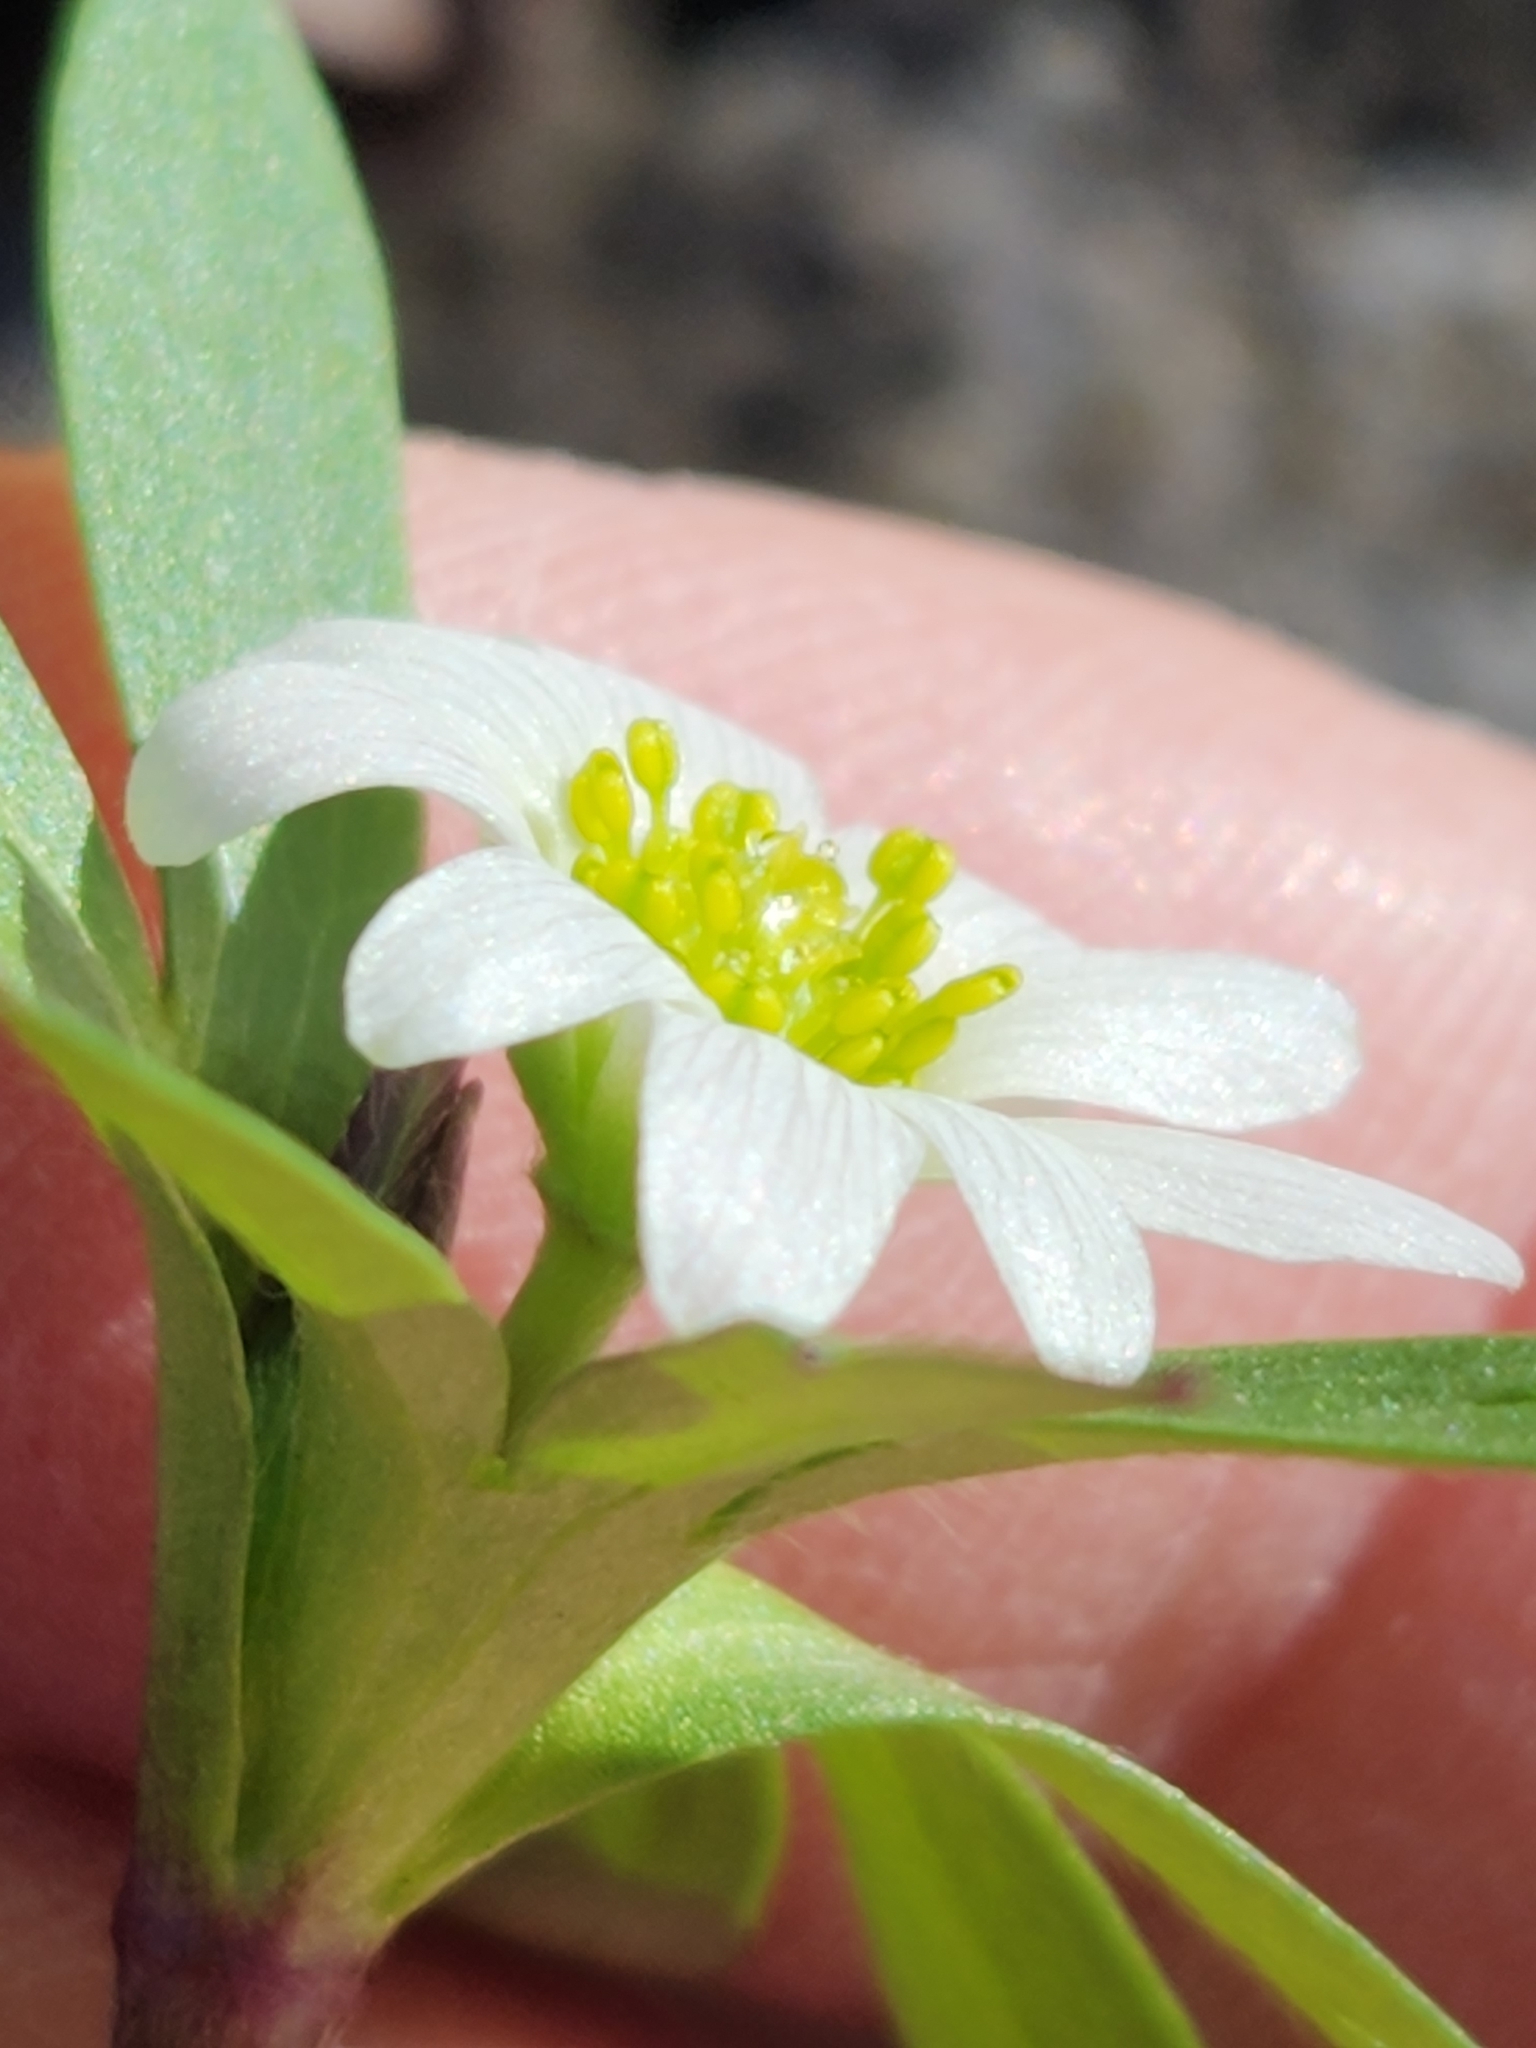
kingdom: Plantae
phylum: Tracheophyta
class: Magnoliopsida
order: Ranunculales
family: Ranunculaceae
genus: Anemone
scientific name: Anemone edwardsiana
